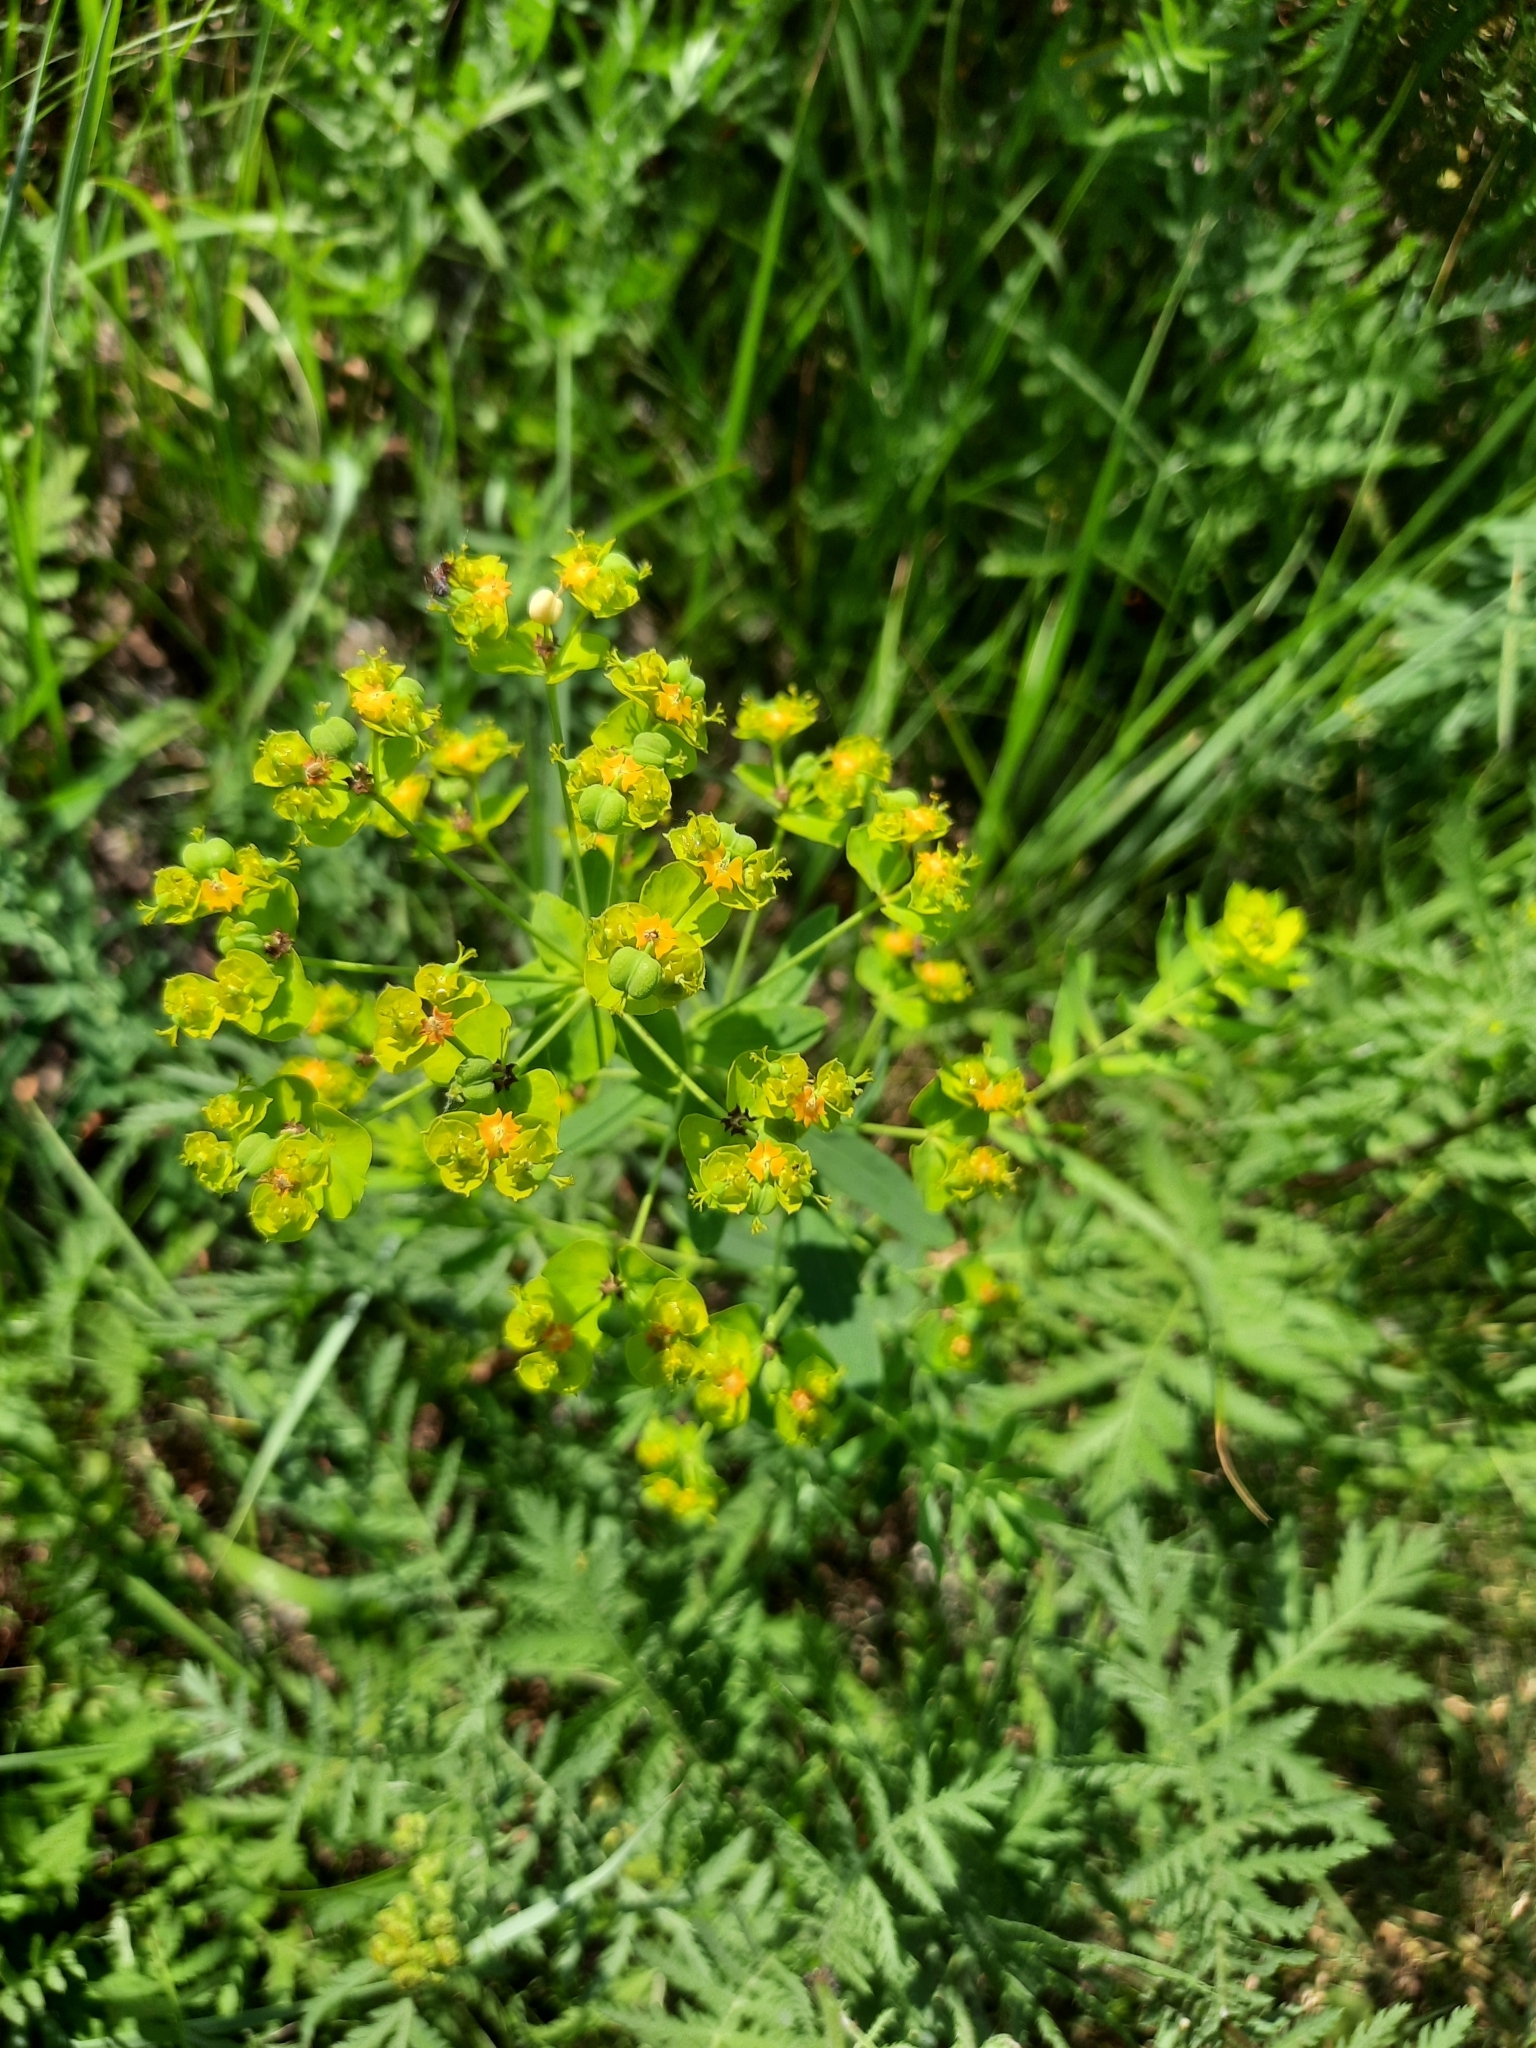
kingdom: Plantae
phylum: Tracheophyta
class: Magnoliopsida
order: Malpighiales
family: Euphorbiaceae
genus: Euphorbia
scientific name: Euphorbia virgata
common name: Leafy spurge
